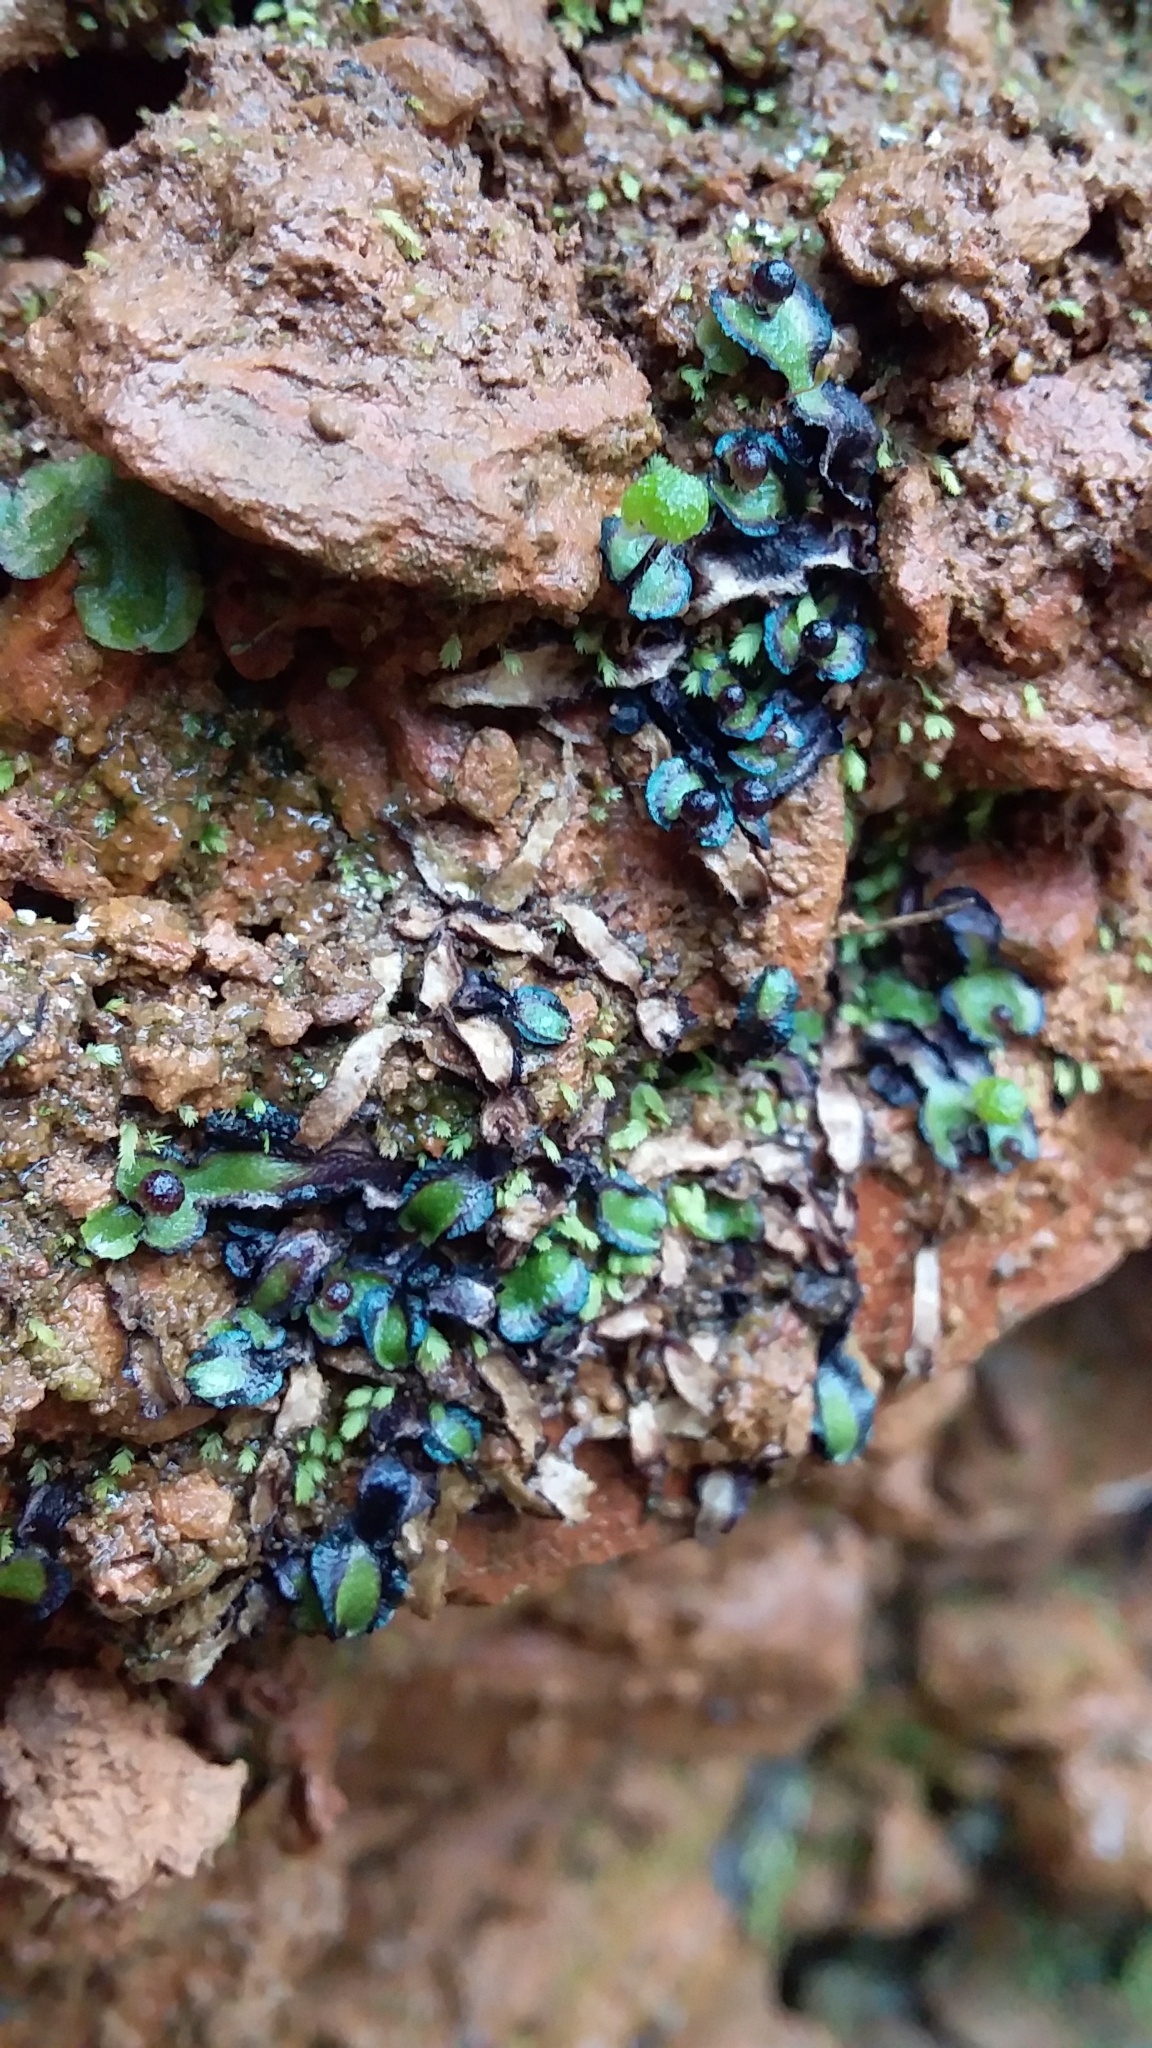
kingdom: Plantae
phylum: Marchantiophyta
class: Marchantiopsida
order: Marchantiales
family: Aytoniaceae
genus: Asterella
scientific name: Asterella drummondii
